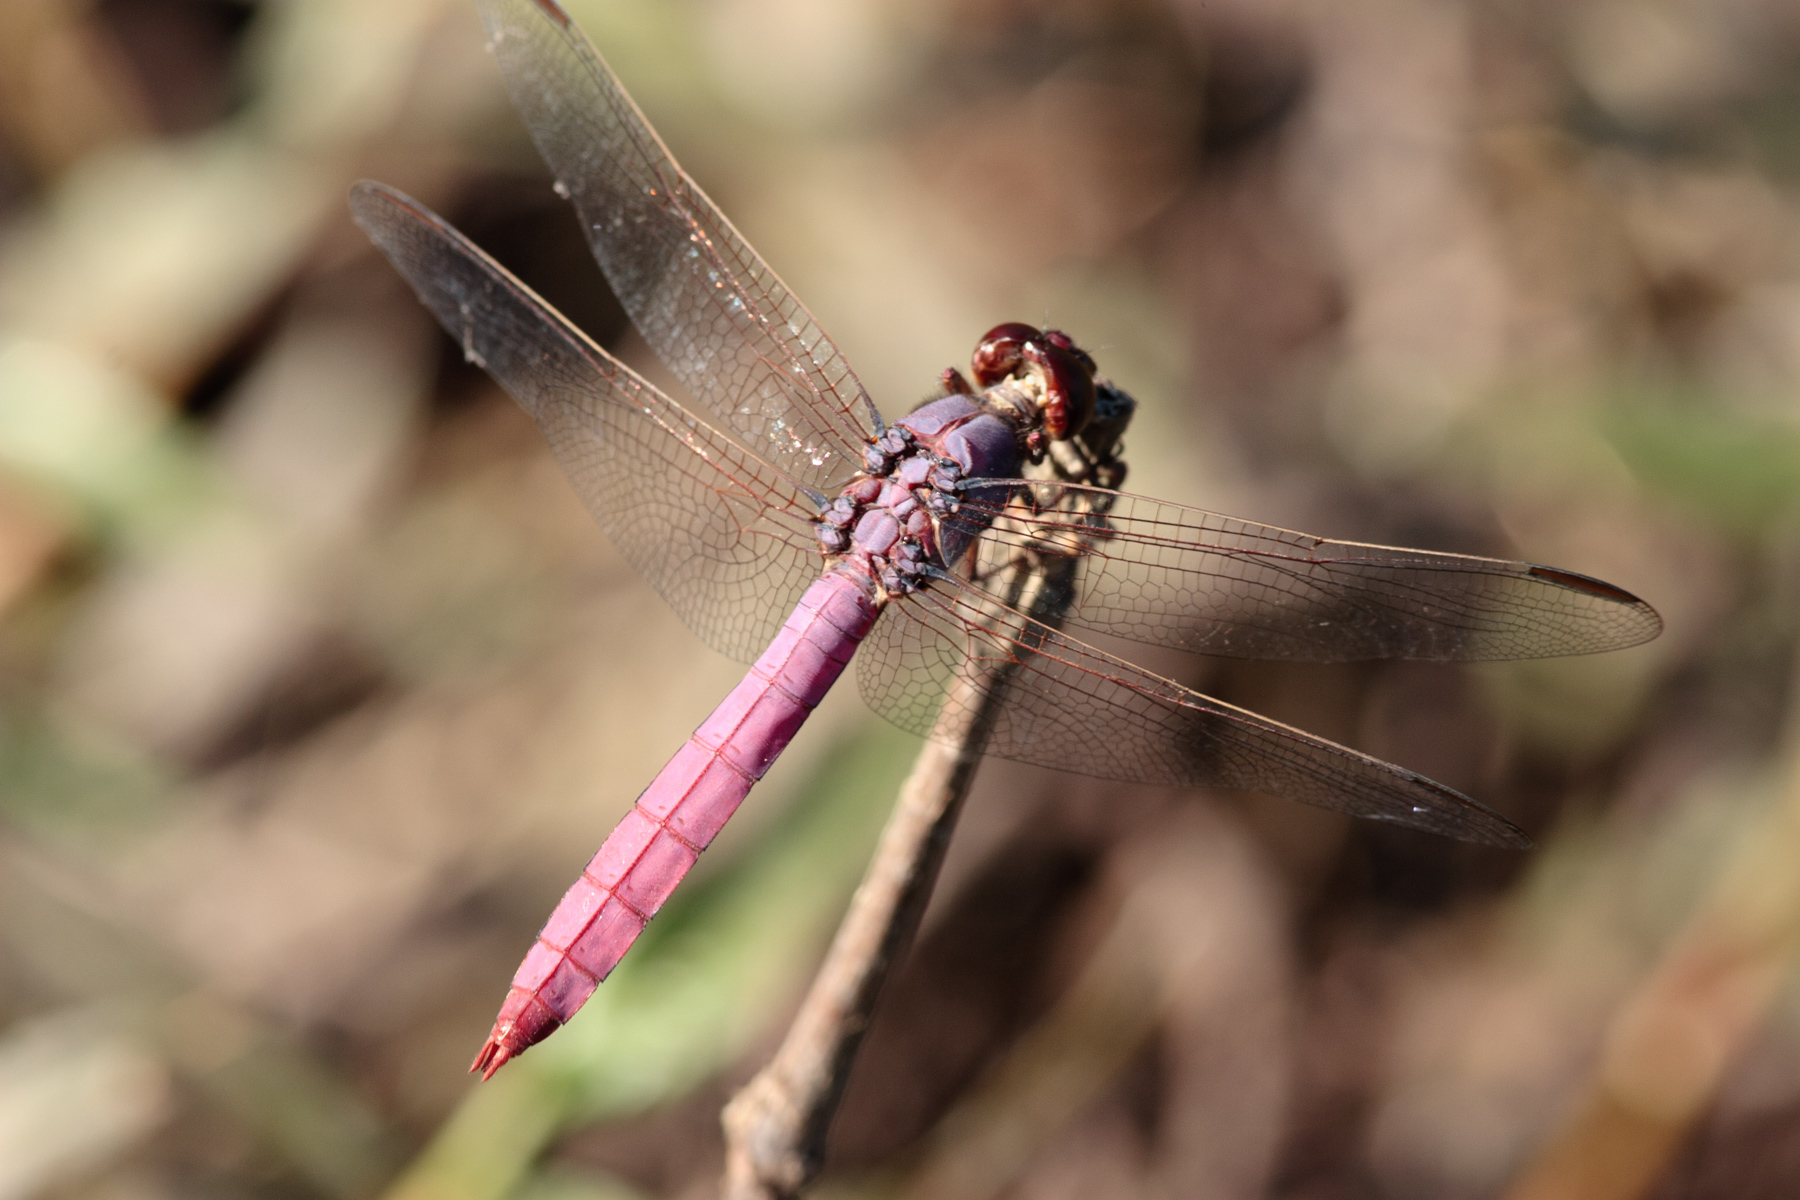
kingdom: Animalia
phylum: Arthropoda
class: Insecta
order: Odonata
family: Libellulidae
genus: Orthemis
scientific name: Orthemis ferruginea
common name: Roseate skimmer
